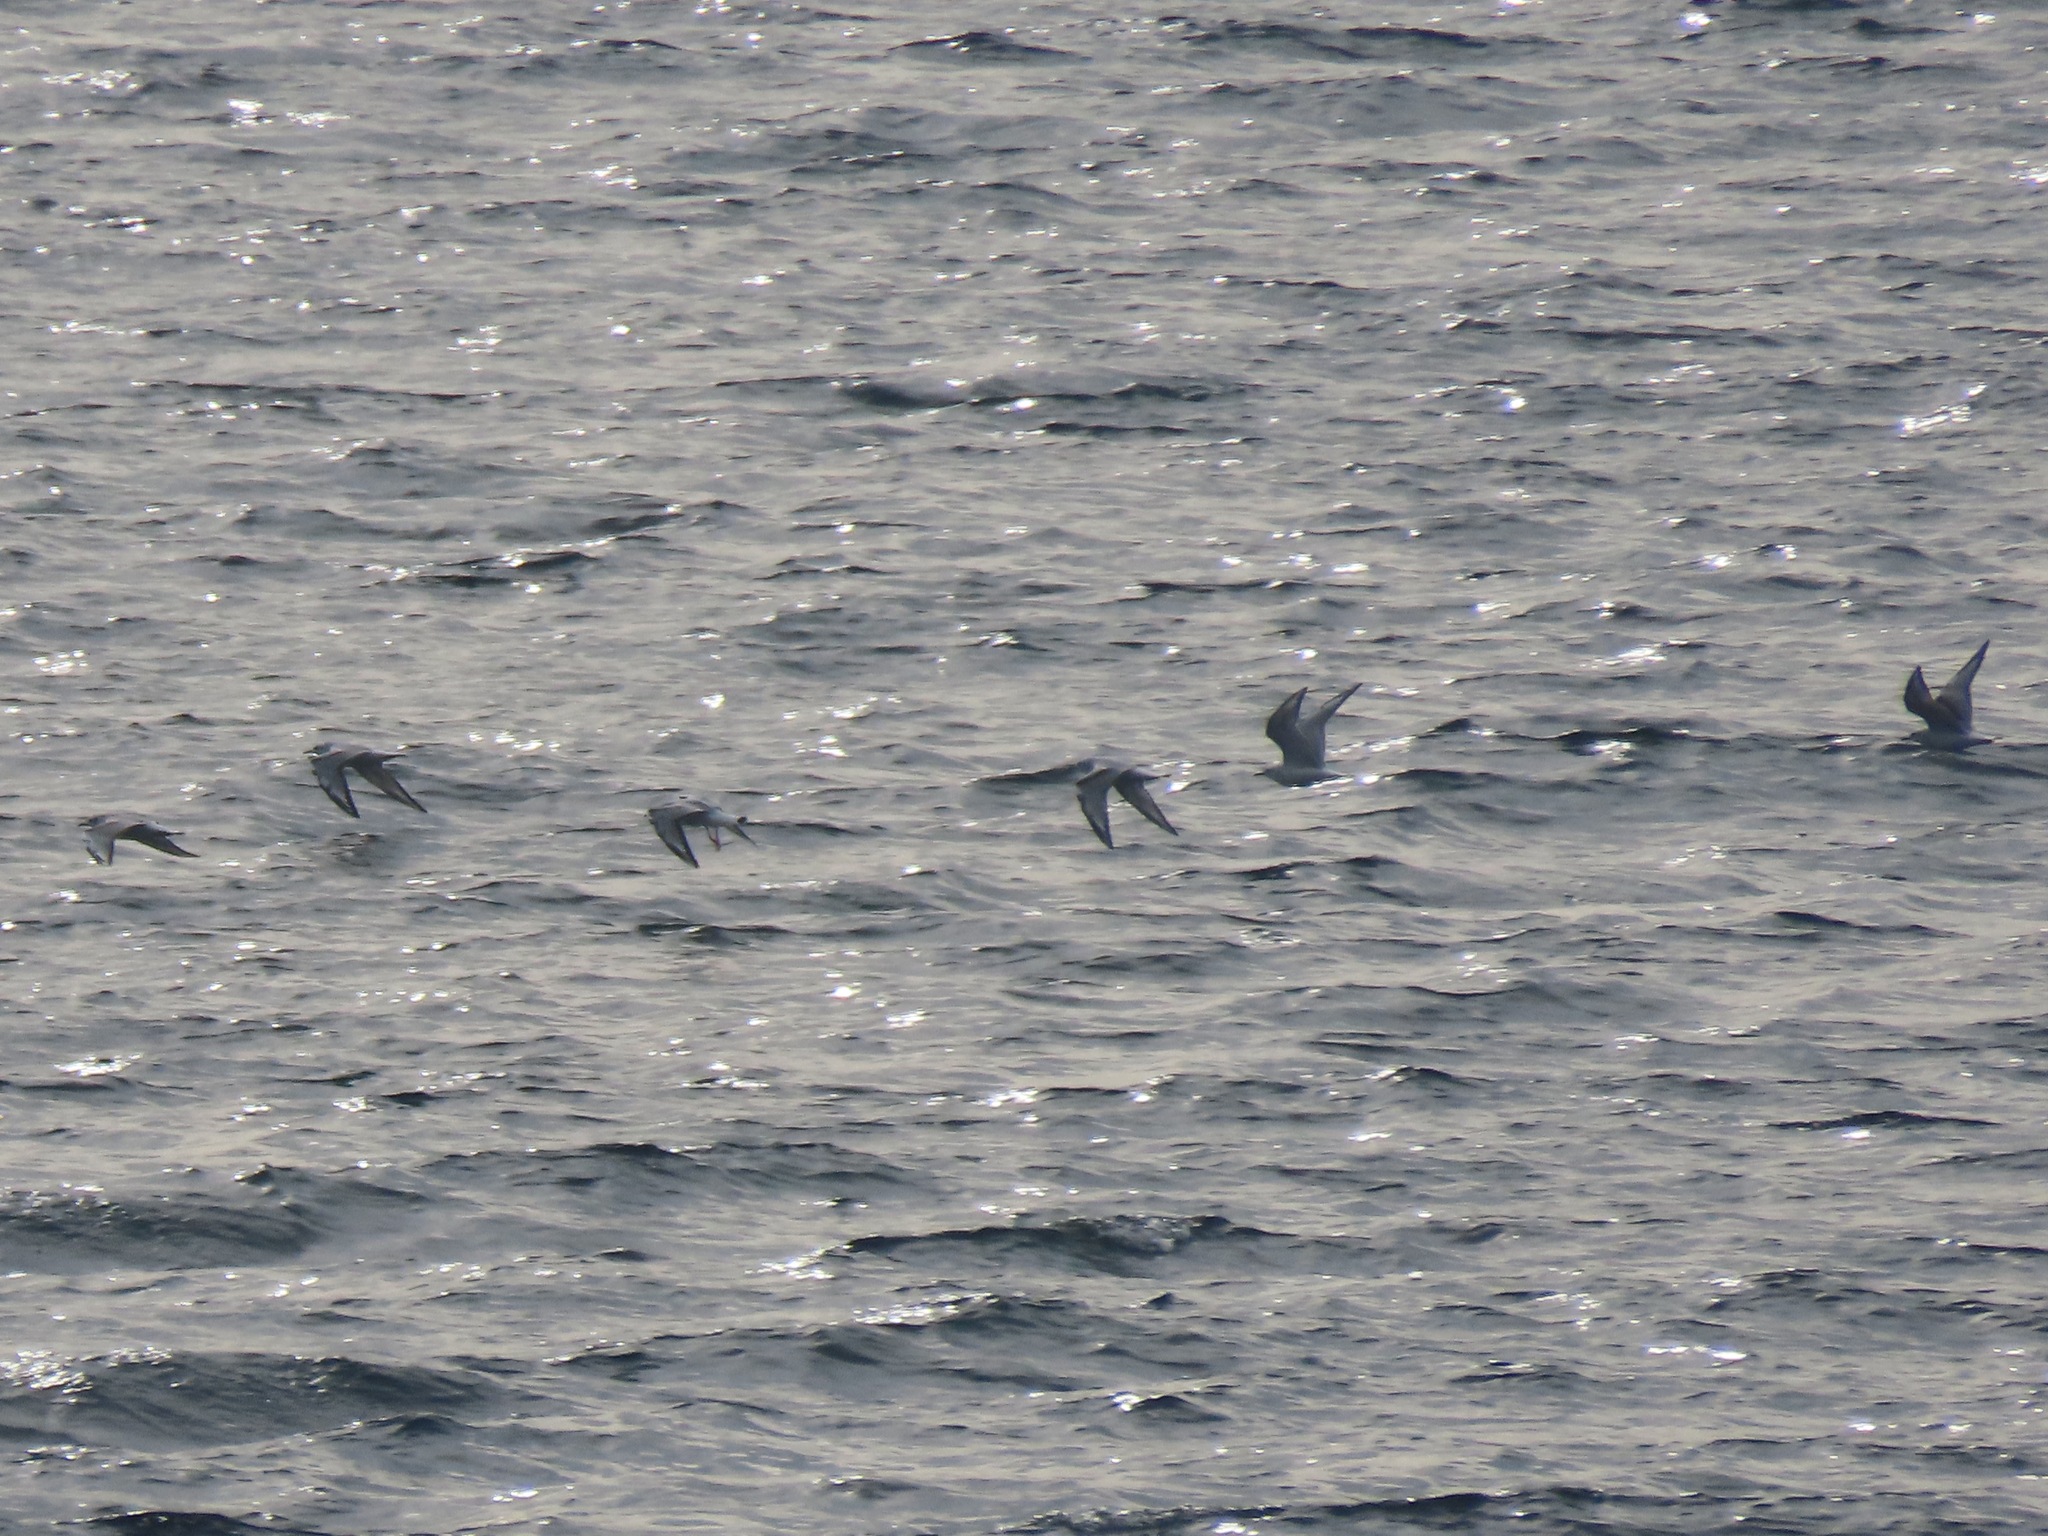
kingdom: Animalia
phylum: Chordata
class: Aves
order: Charadriiformes
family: Laridae
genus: Chroicocephalus
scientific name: Chroicocephalus philadelphia
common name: Bonaparte's gull
